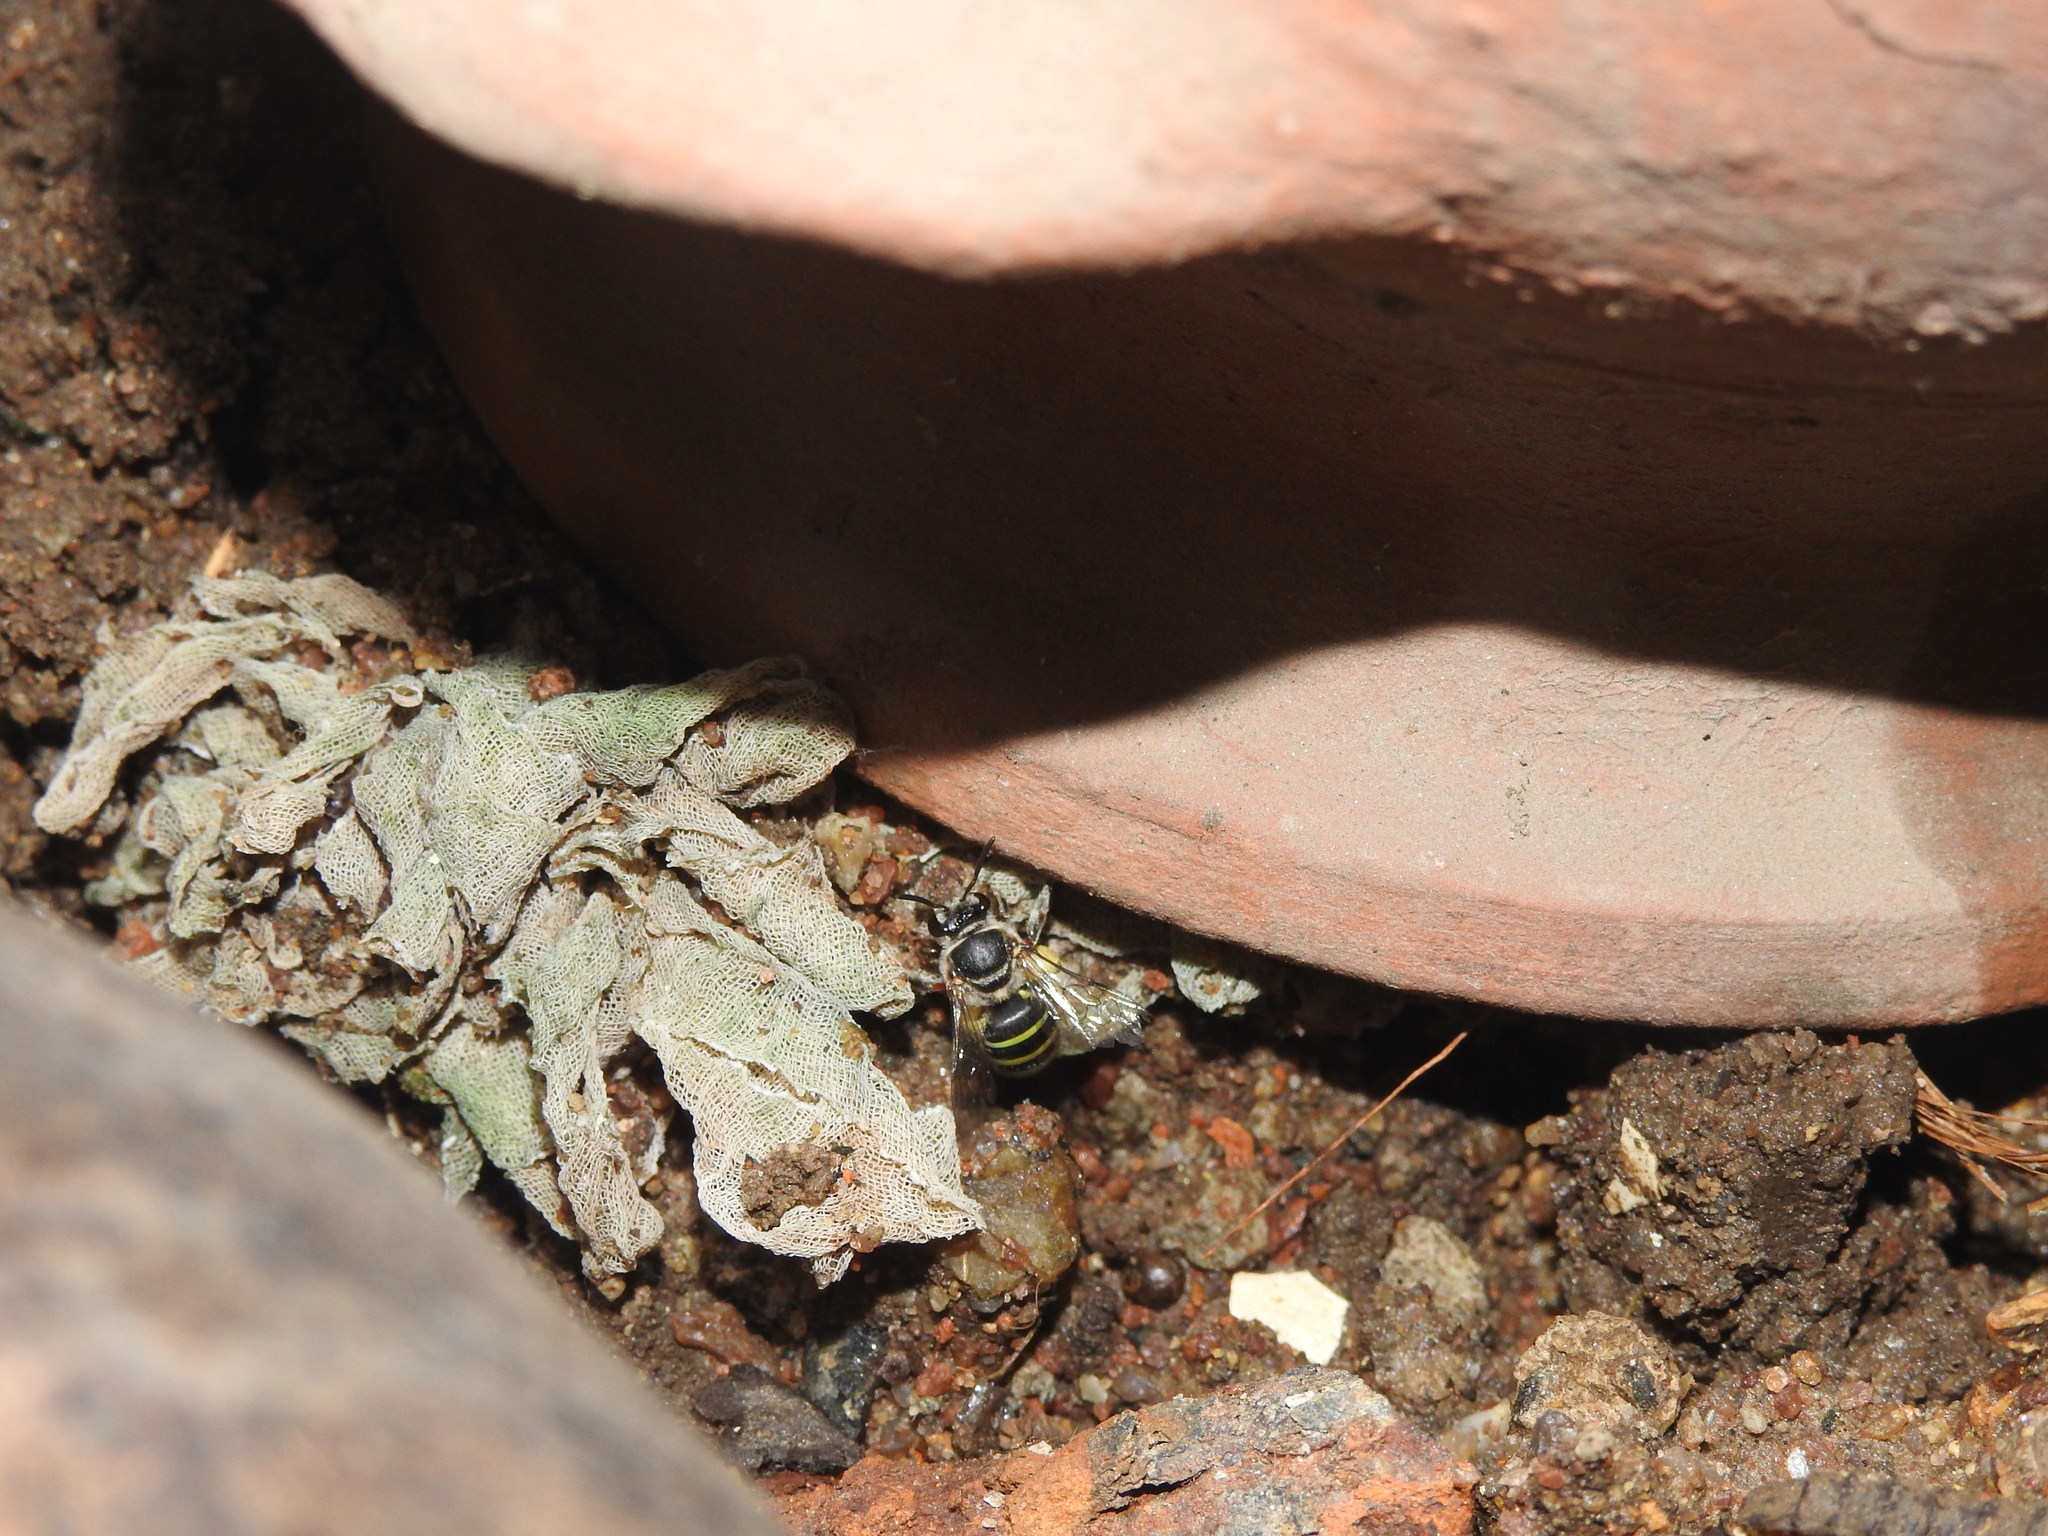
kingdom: Animalia
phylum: Arthropoda
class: Insecta
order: Hymenoptera
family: Halictidae
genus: Nomia
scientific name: Nomia westwoodi
